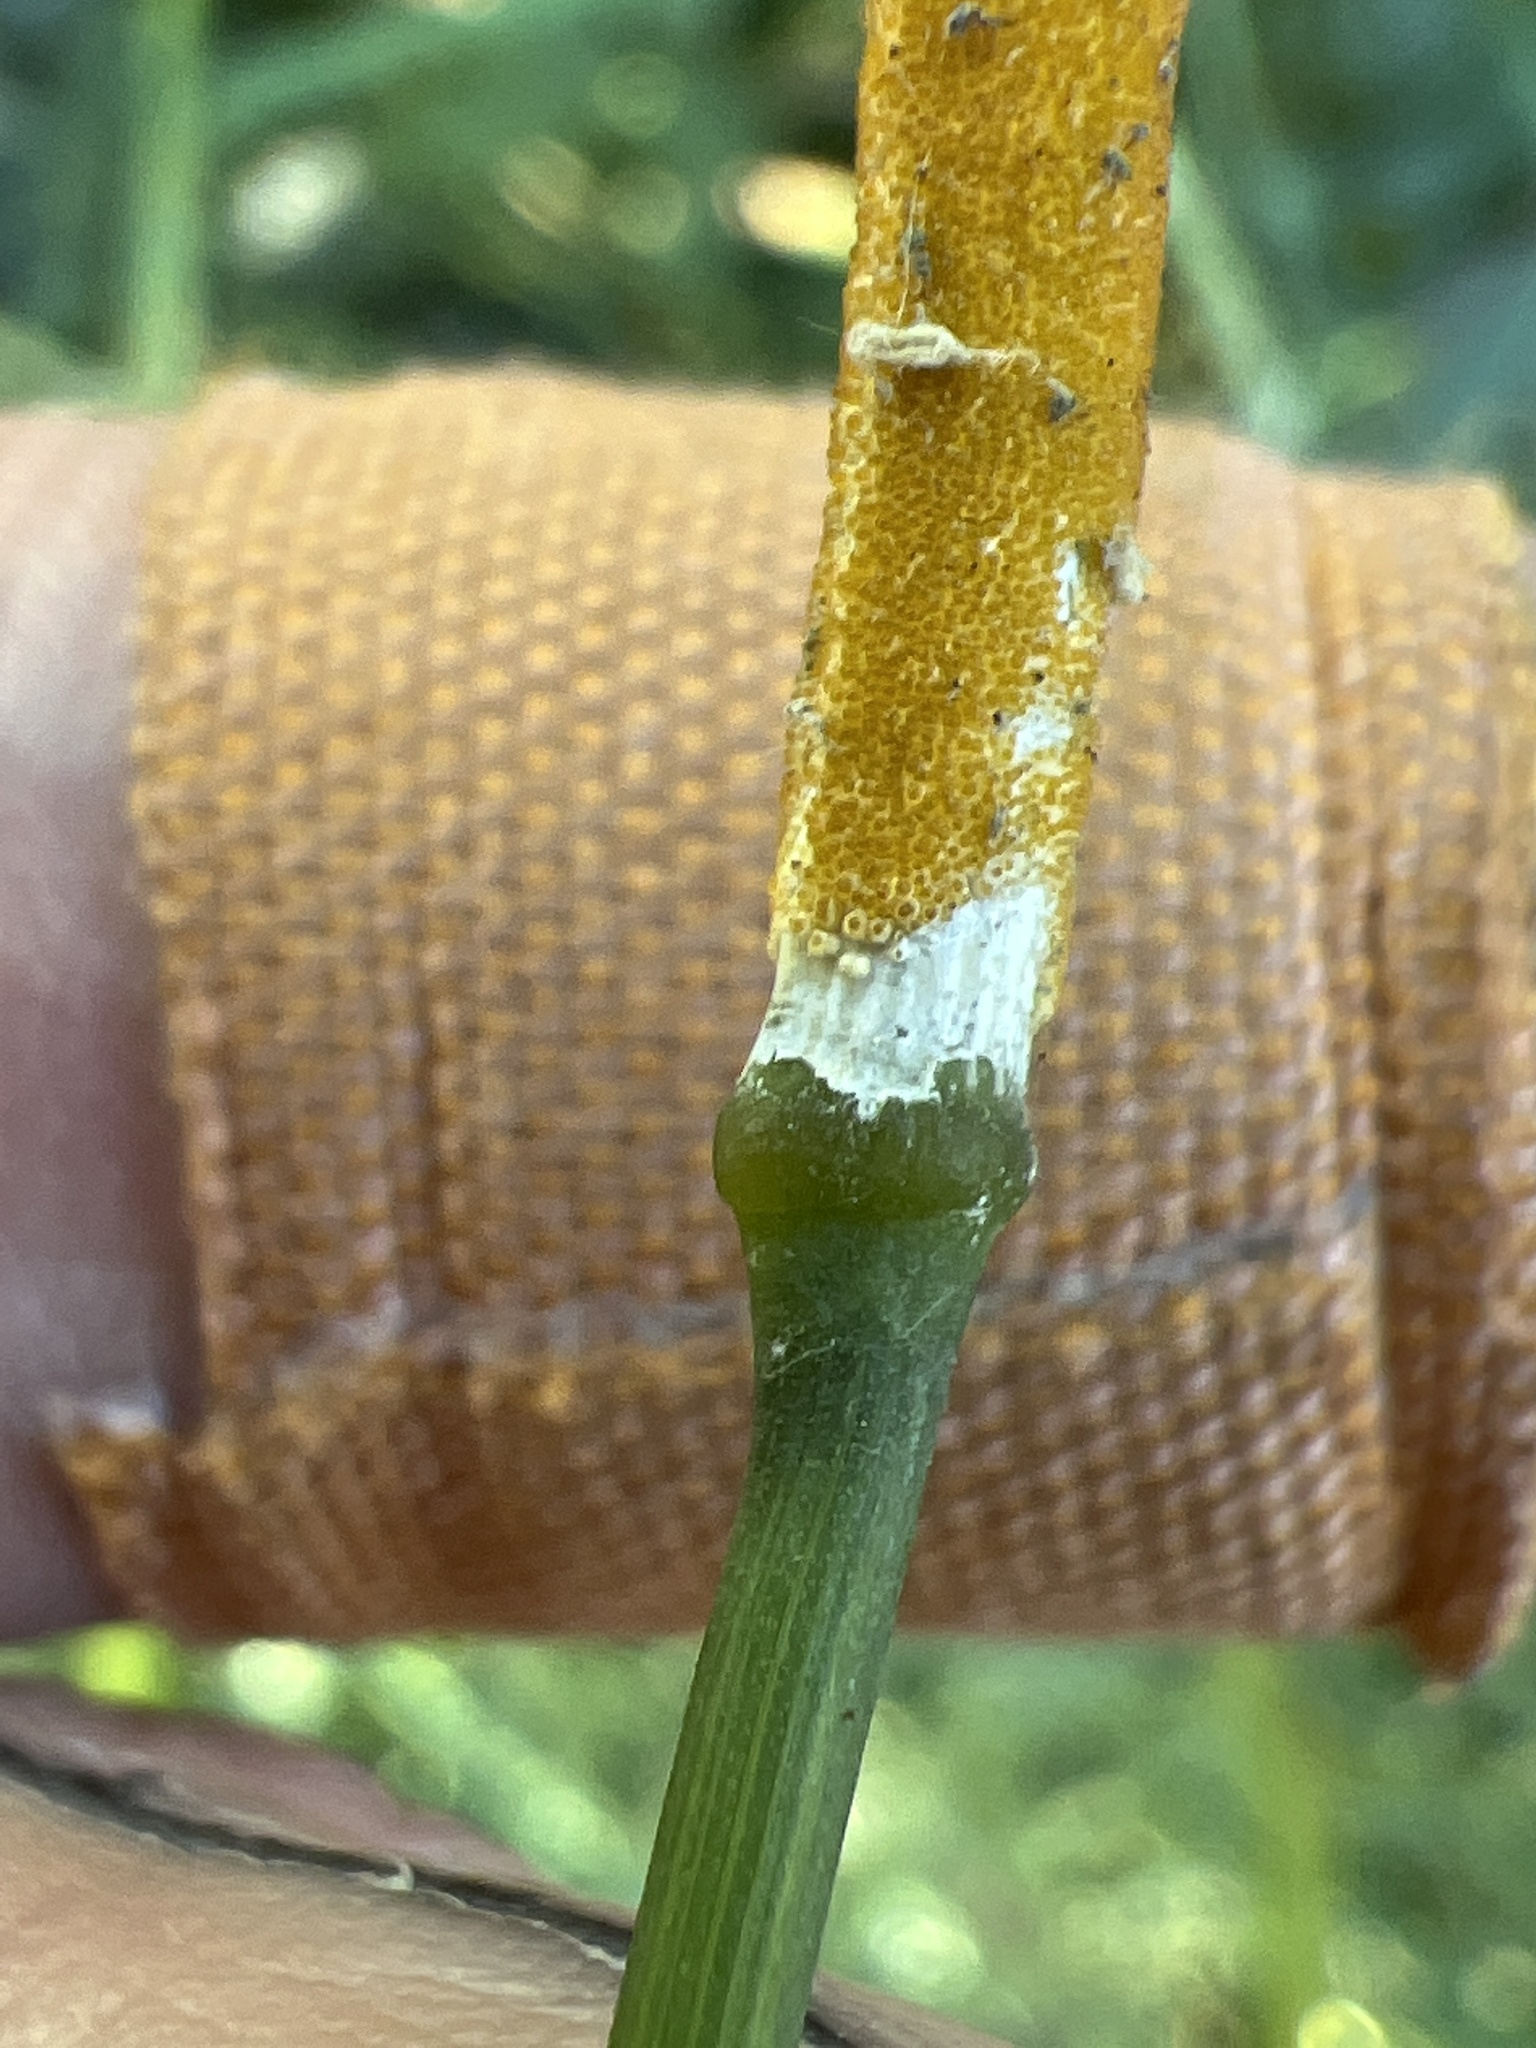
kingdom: Fungi
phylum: Ascomycota
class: Sordariomycetes
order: Hypocreales
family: Clavicipitaceae
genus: Epichloe
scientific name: Epichloe typhina
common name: Choke
